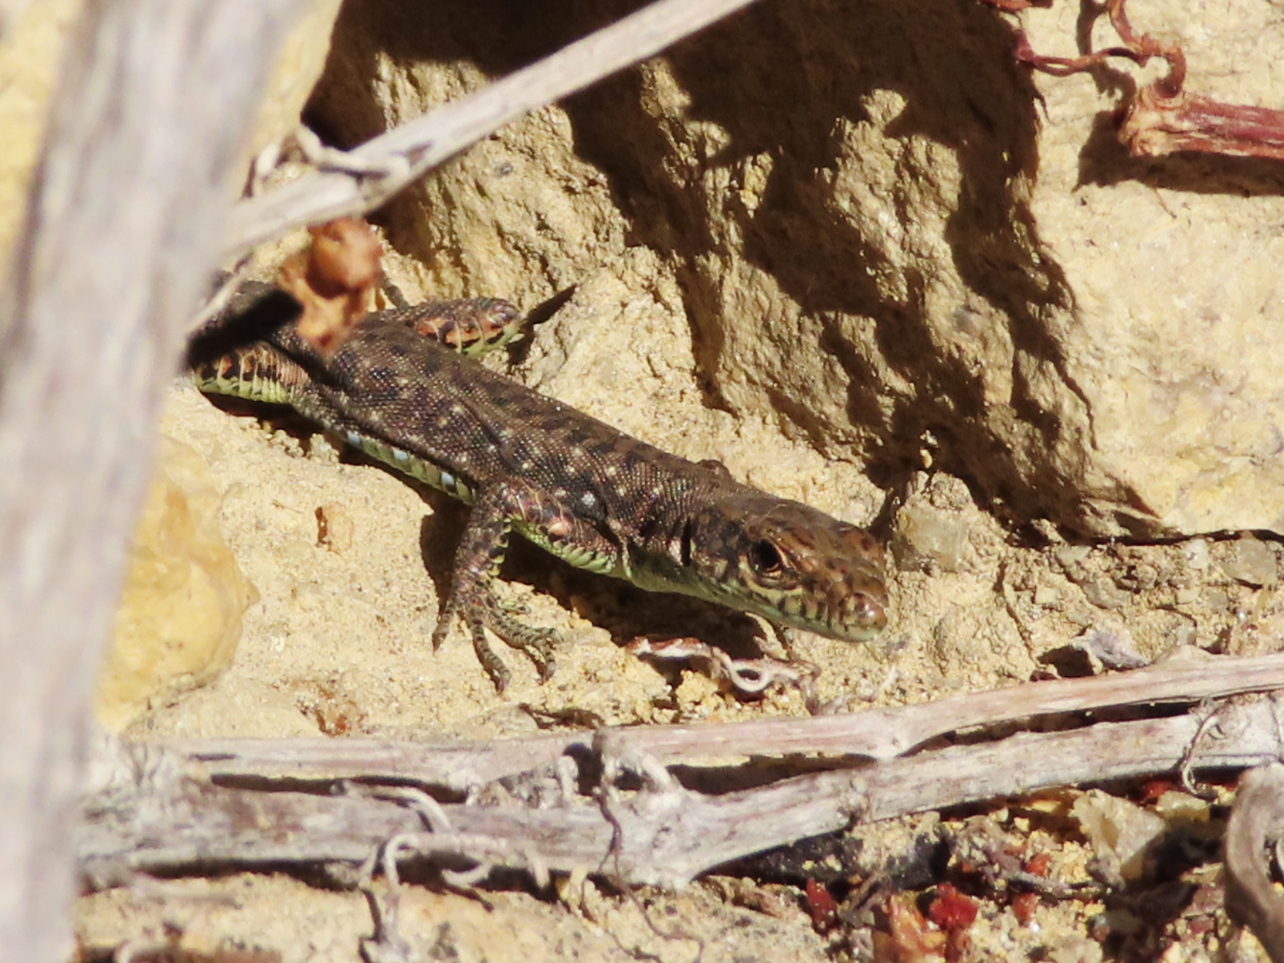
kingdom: Animalia
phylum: Chordata
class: Squamata
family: Lacertidae
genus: Darevskia
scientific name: Darevskia rudis
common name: Spiny-tailed lizard
